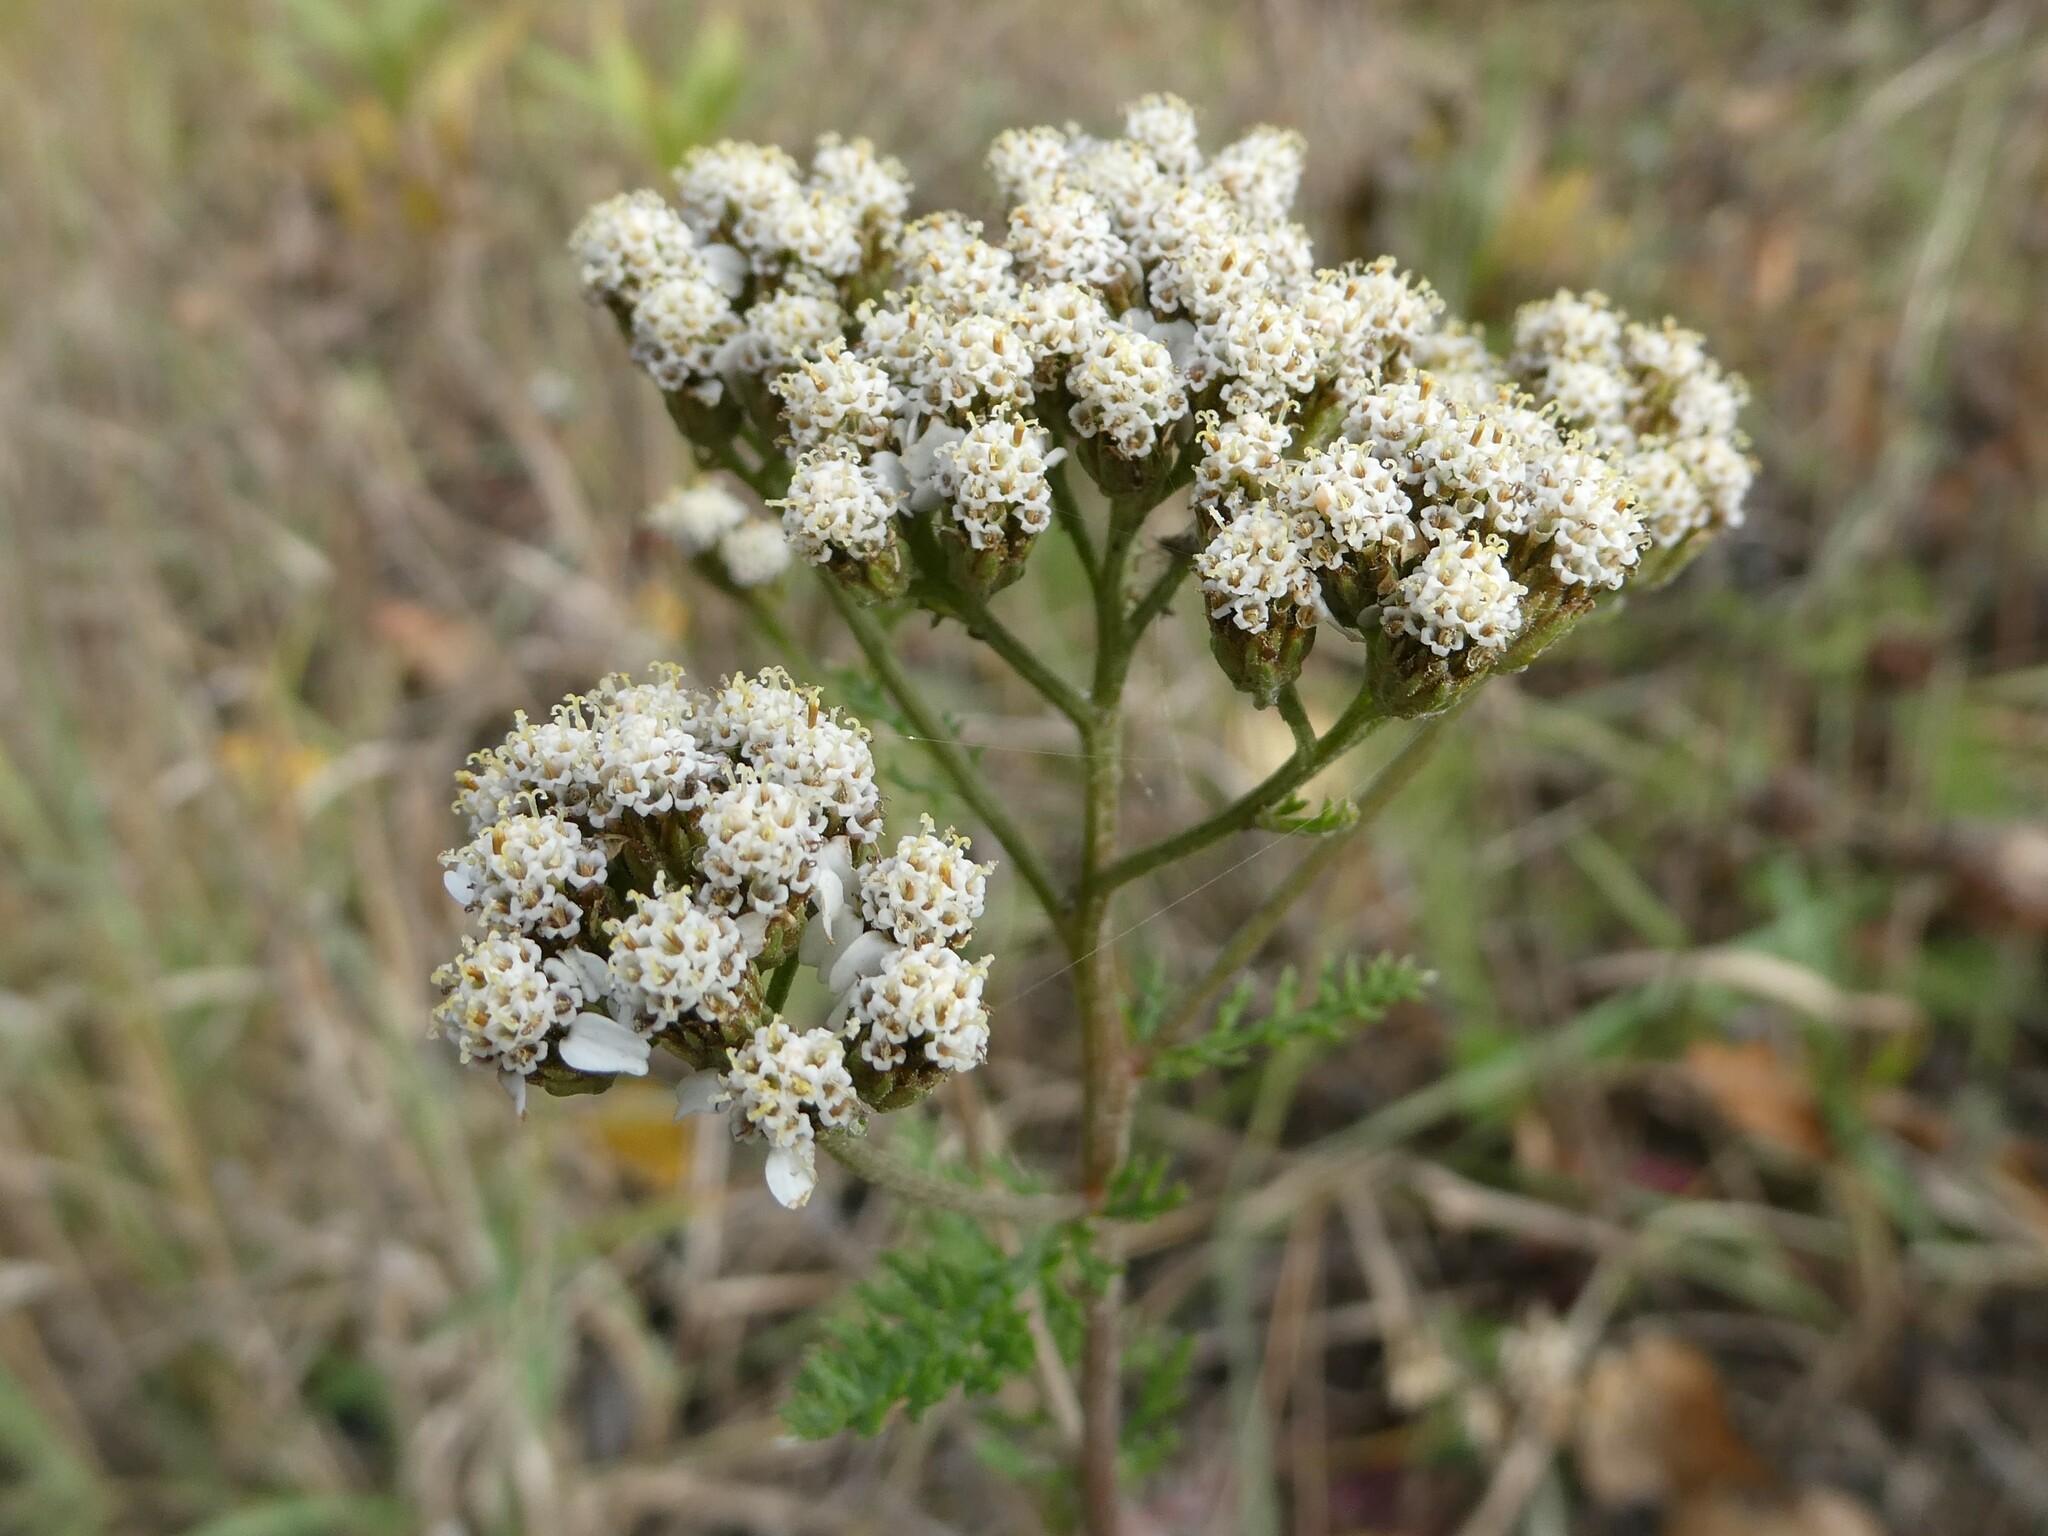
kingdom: Plantae
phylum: Tracheophyta
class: Magnoliopsida
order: Asterales
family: Asteraceae
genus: Achillea
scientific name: Achillea millefolium
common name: Yarrow
